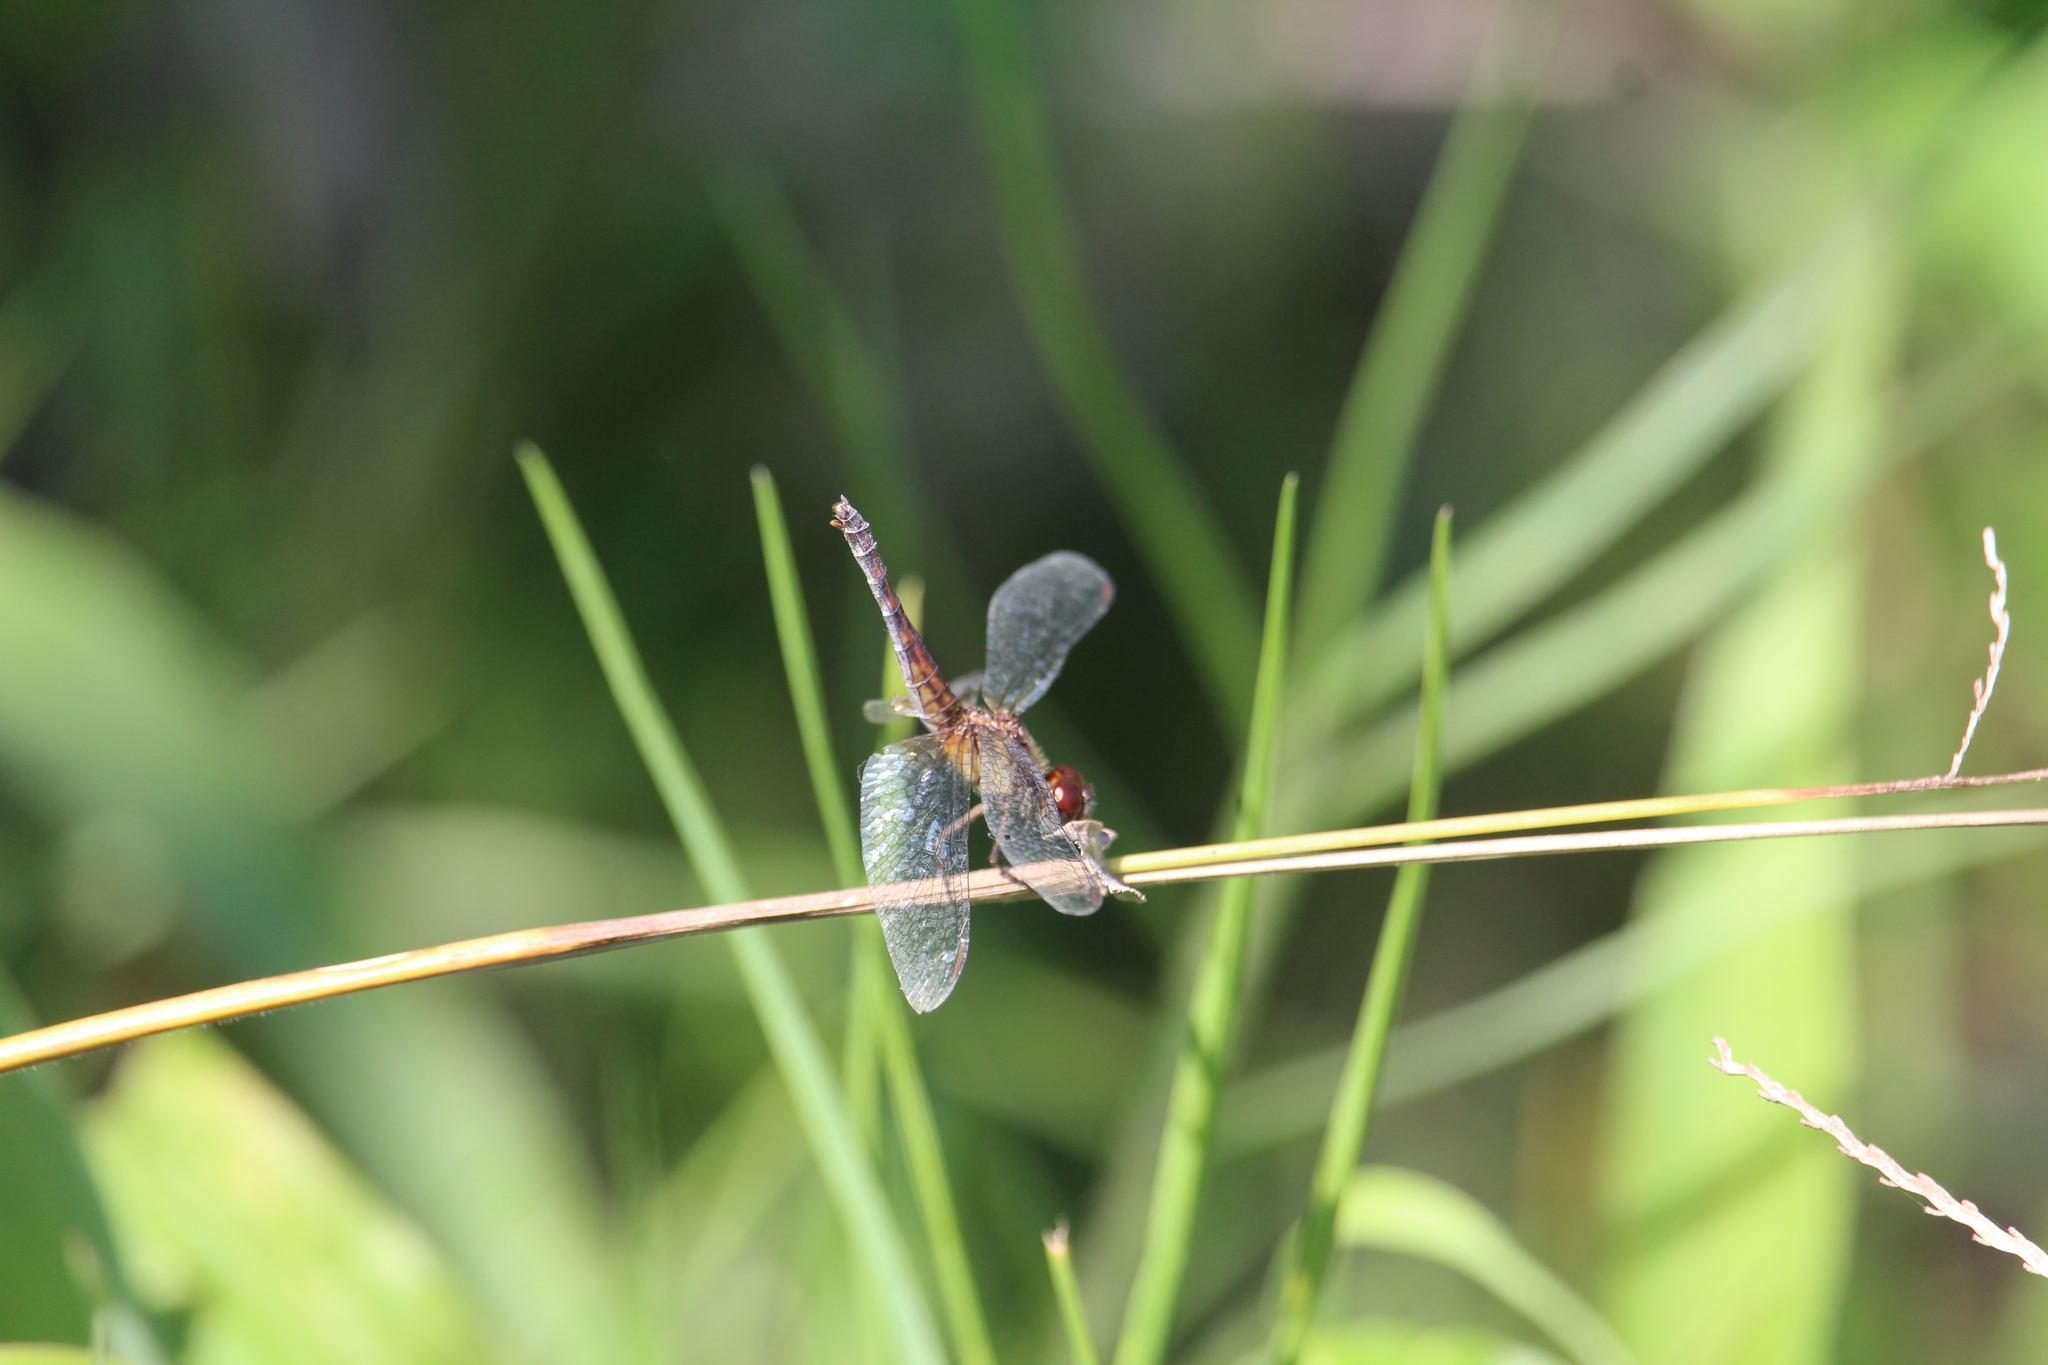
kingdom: Animalia
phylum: Arthropoda
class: Insecta
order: Odonata
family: Libellulidae
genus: Erythrodiplax
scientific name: Erythrodiplax fusca
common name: Red-faced dragonlet
